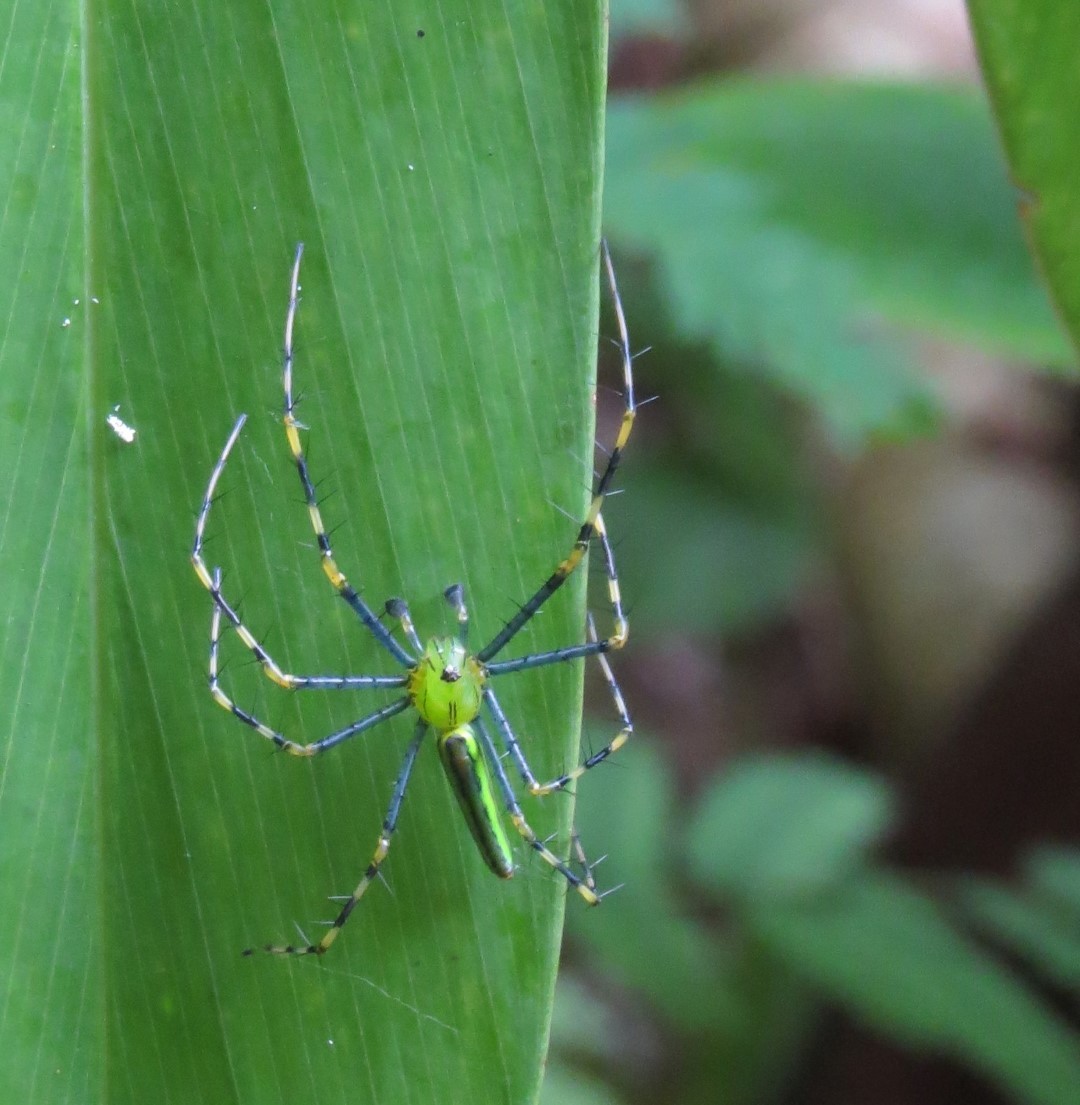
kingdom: Animalia
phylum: Arthropoda
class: Arachnida
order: Araneae
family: Oxyopidae
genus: Peucetia
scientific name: Peucetia madagascariensis
